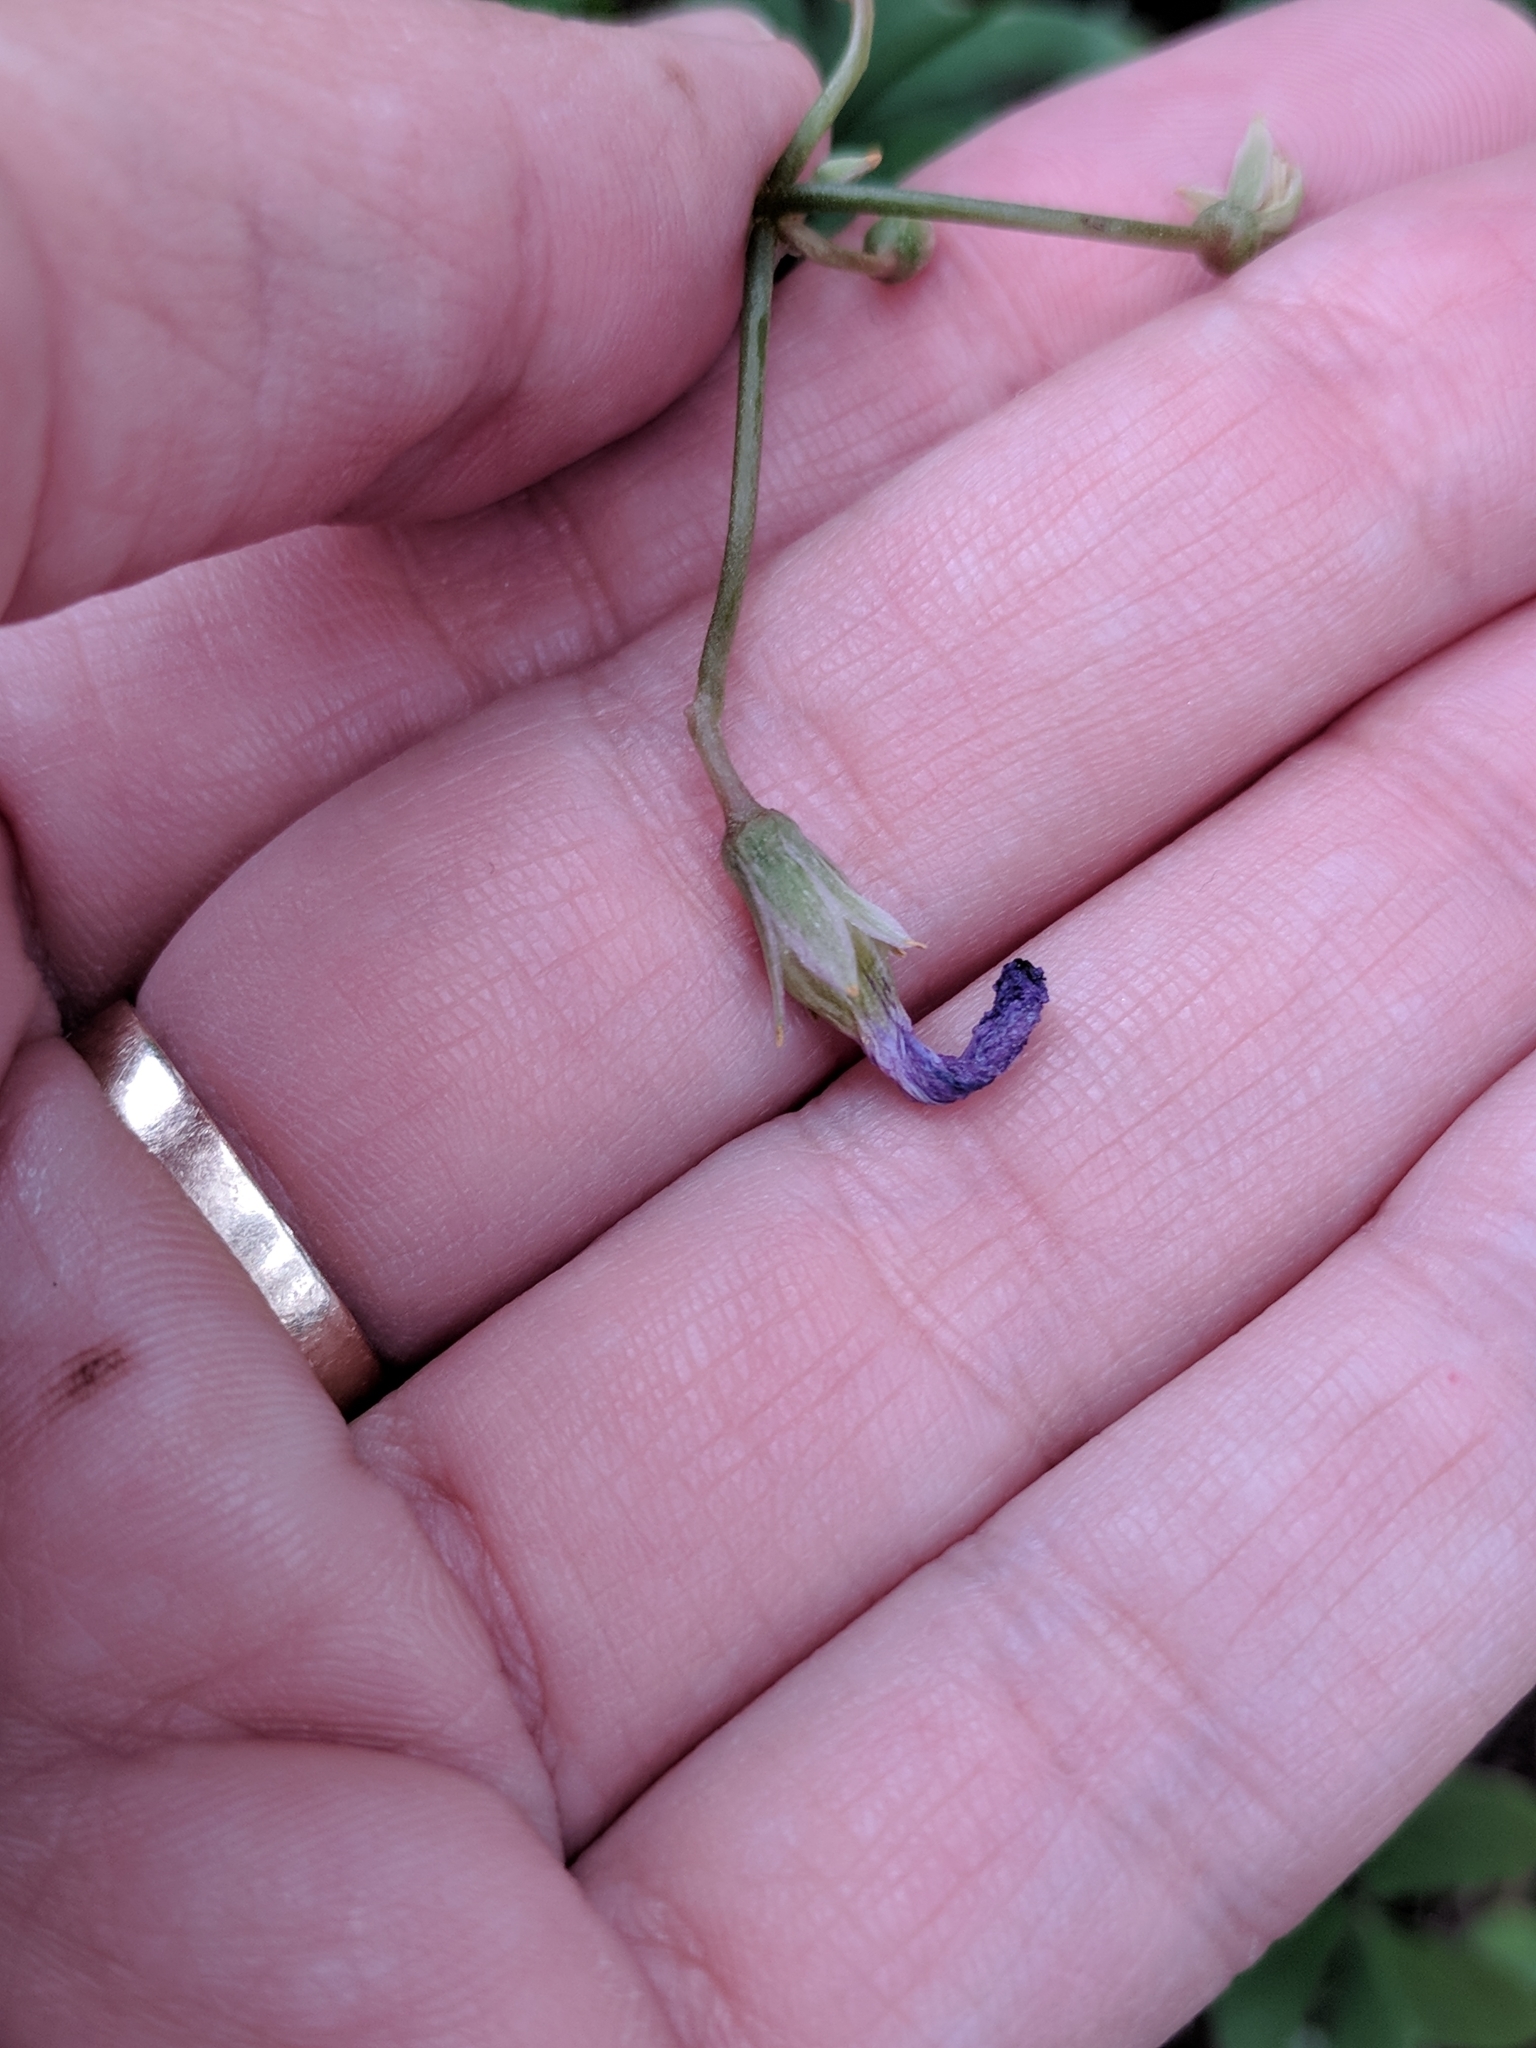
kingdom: Plantae
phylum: Tracheophyta
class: Magnoliopsida
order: Oxalidales
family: Oxalidaceae
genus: Oxalis
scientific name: Oxalis drummondii
